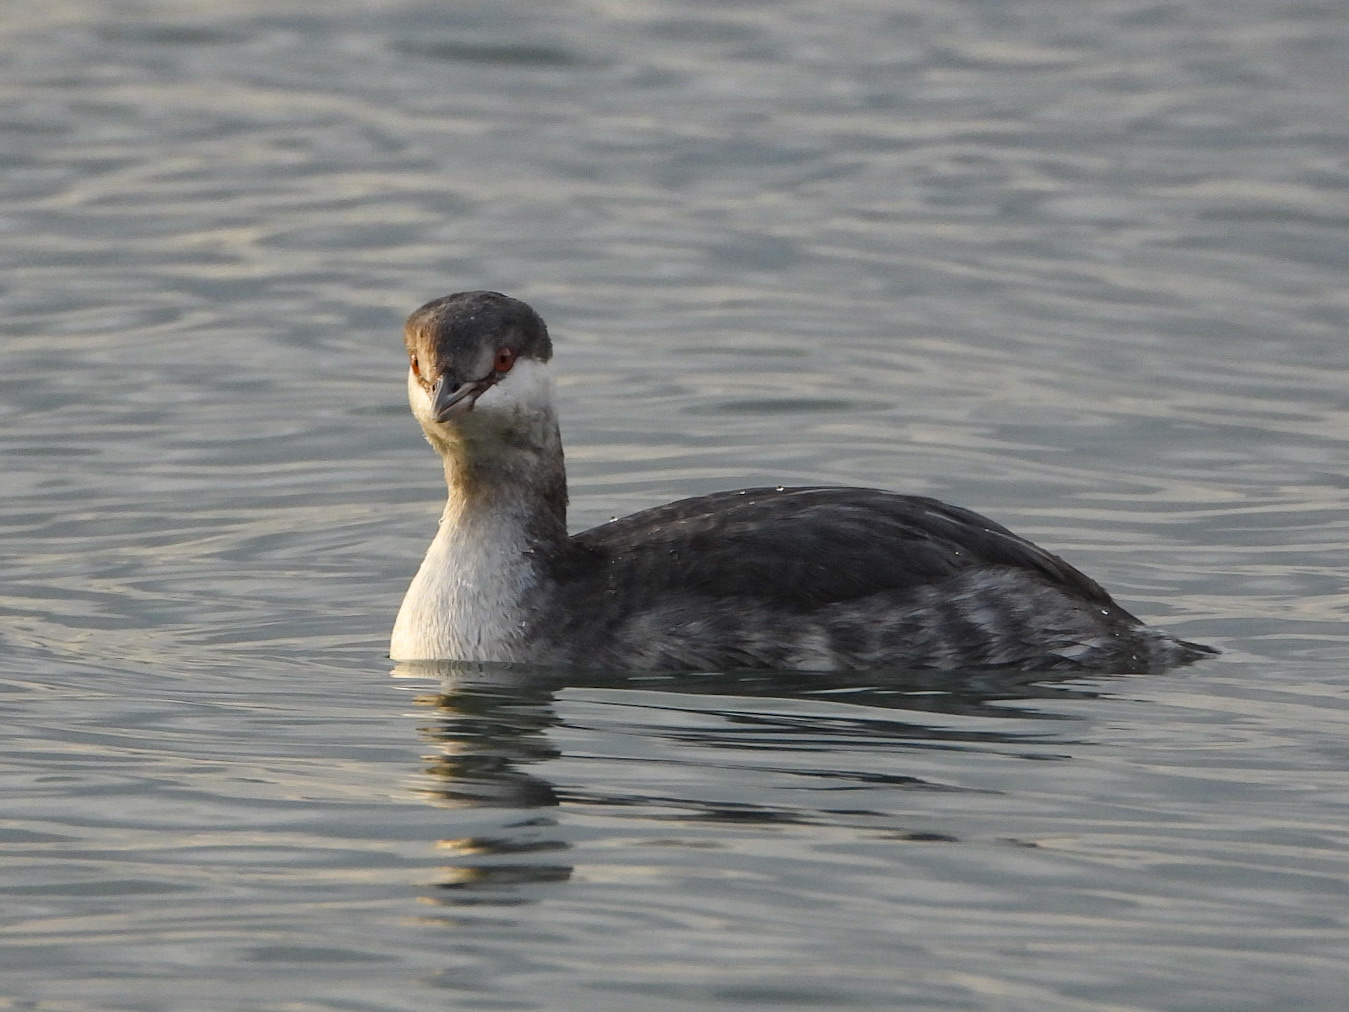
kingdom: Animalia
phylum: Chordata
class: Aves
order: Podicipediformes
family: Podicipedidae
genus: Podiceps
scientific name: Podiceps auritus
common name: Horned grebe
